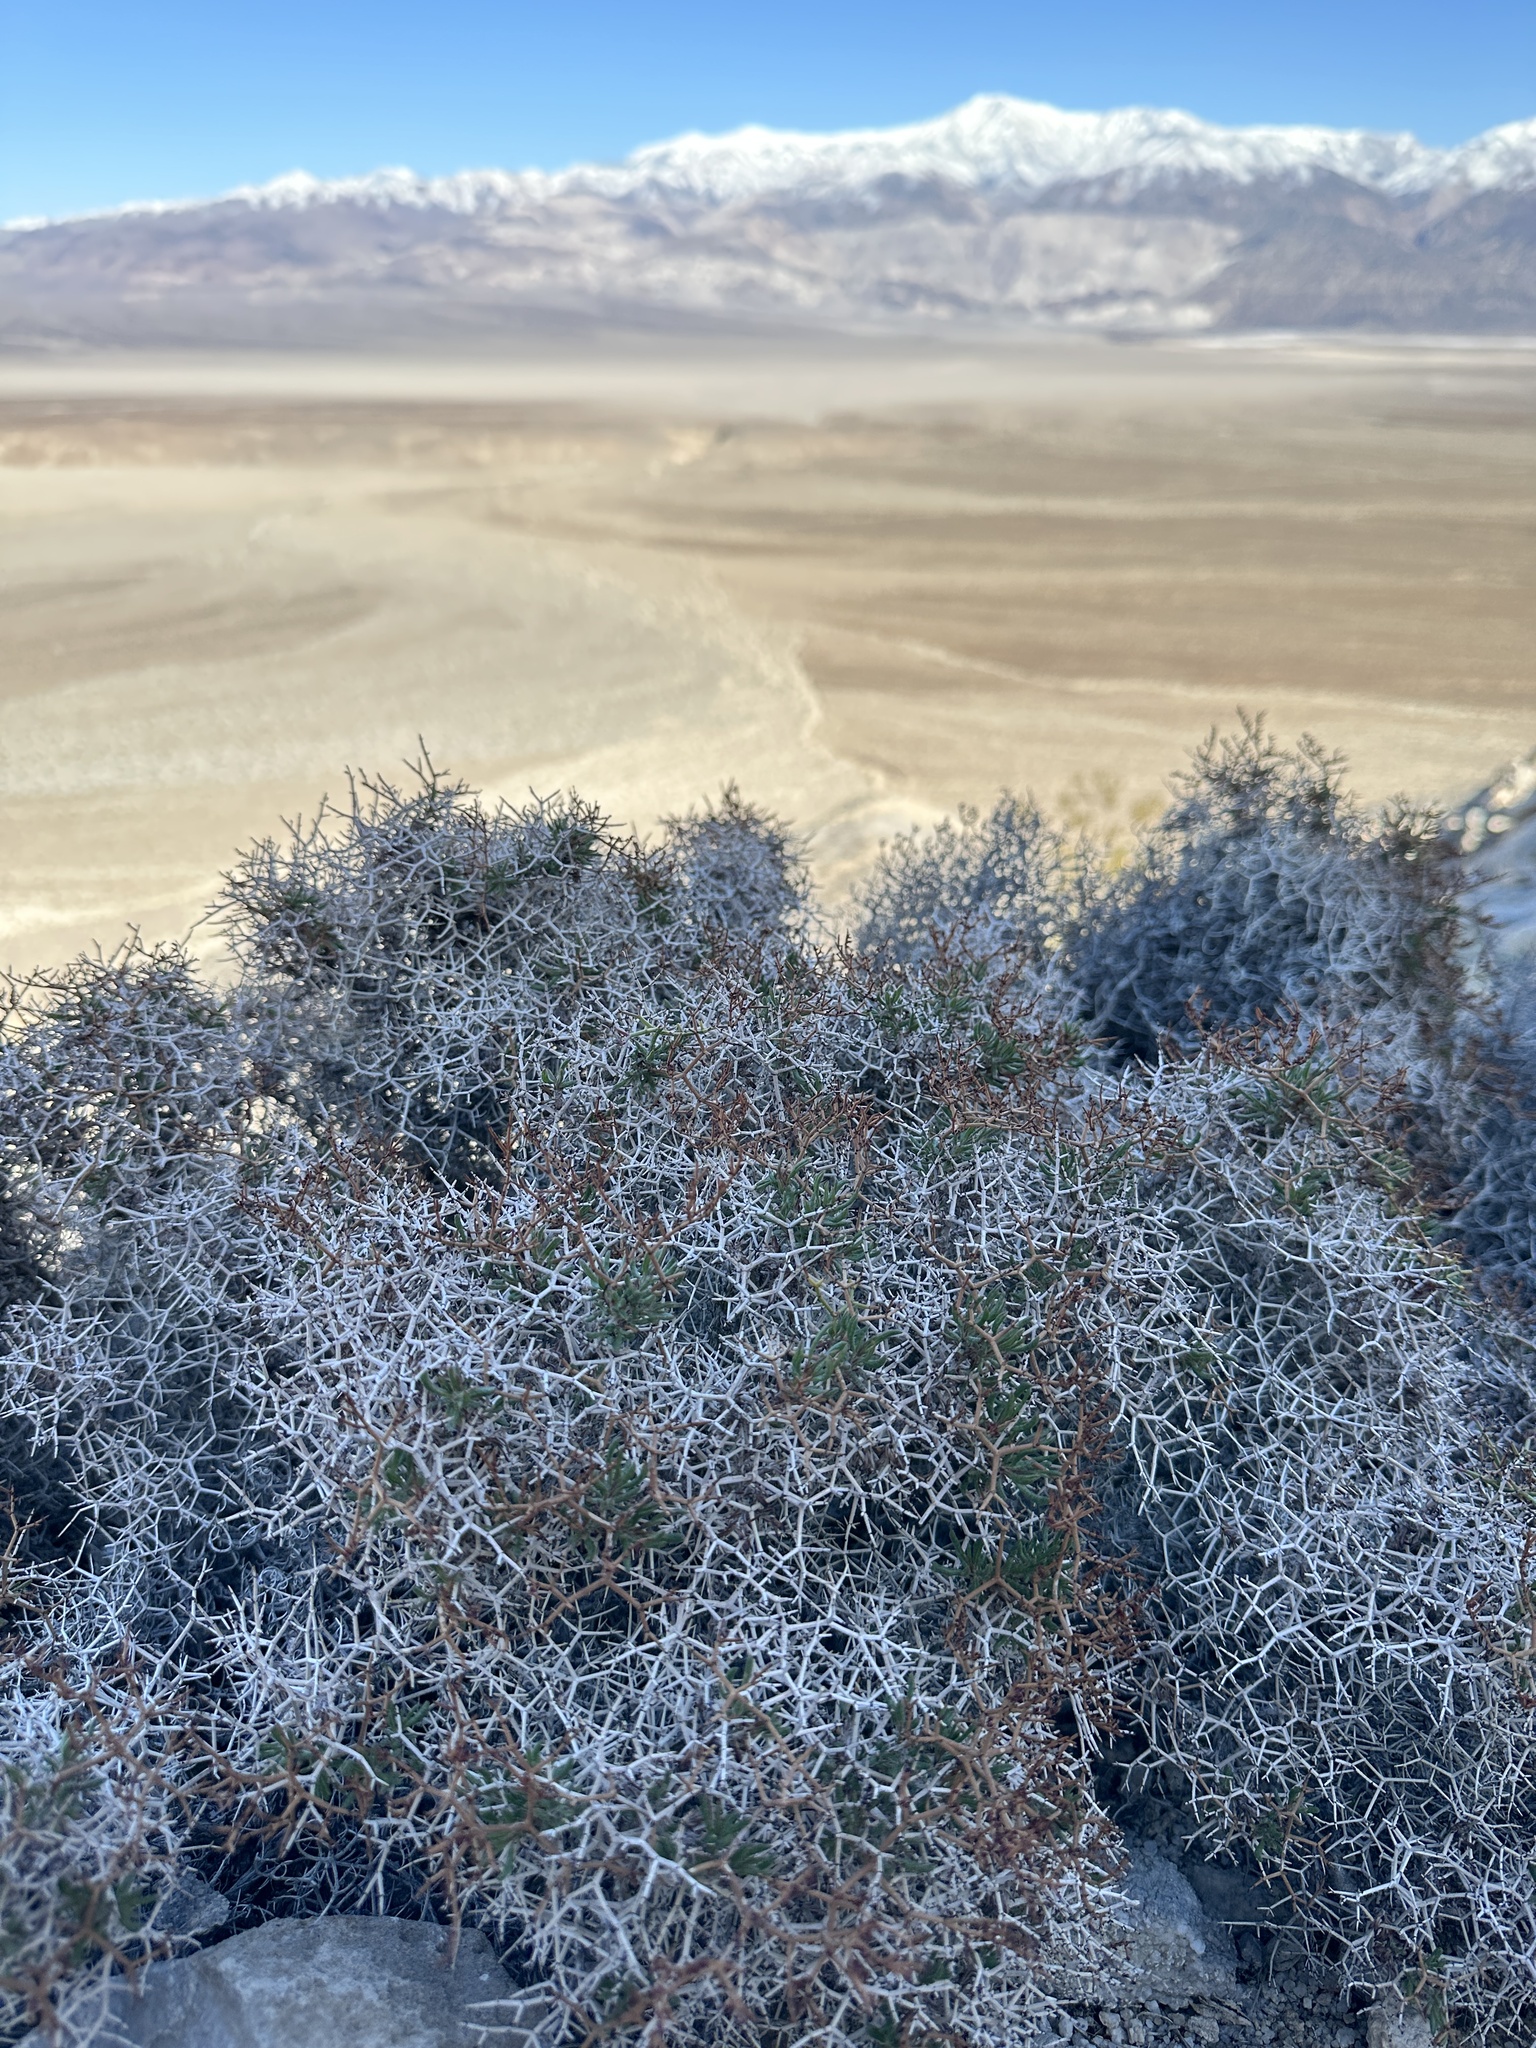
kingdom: Plantae
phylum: Tracheophyta
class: Magnoliopsida
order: Caryophyllales
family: Polygonaceae
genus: Eriogonum
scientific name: Eriogonum heermannii
